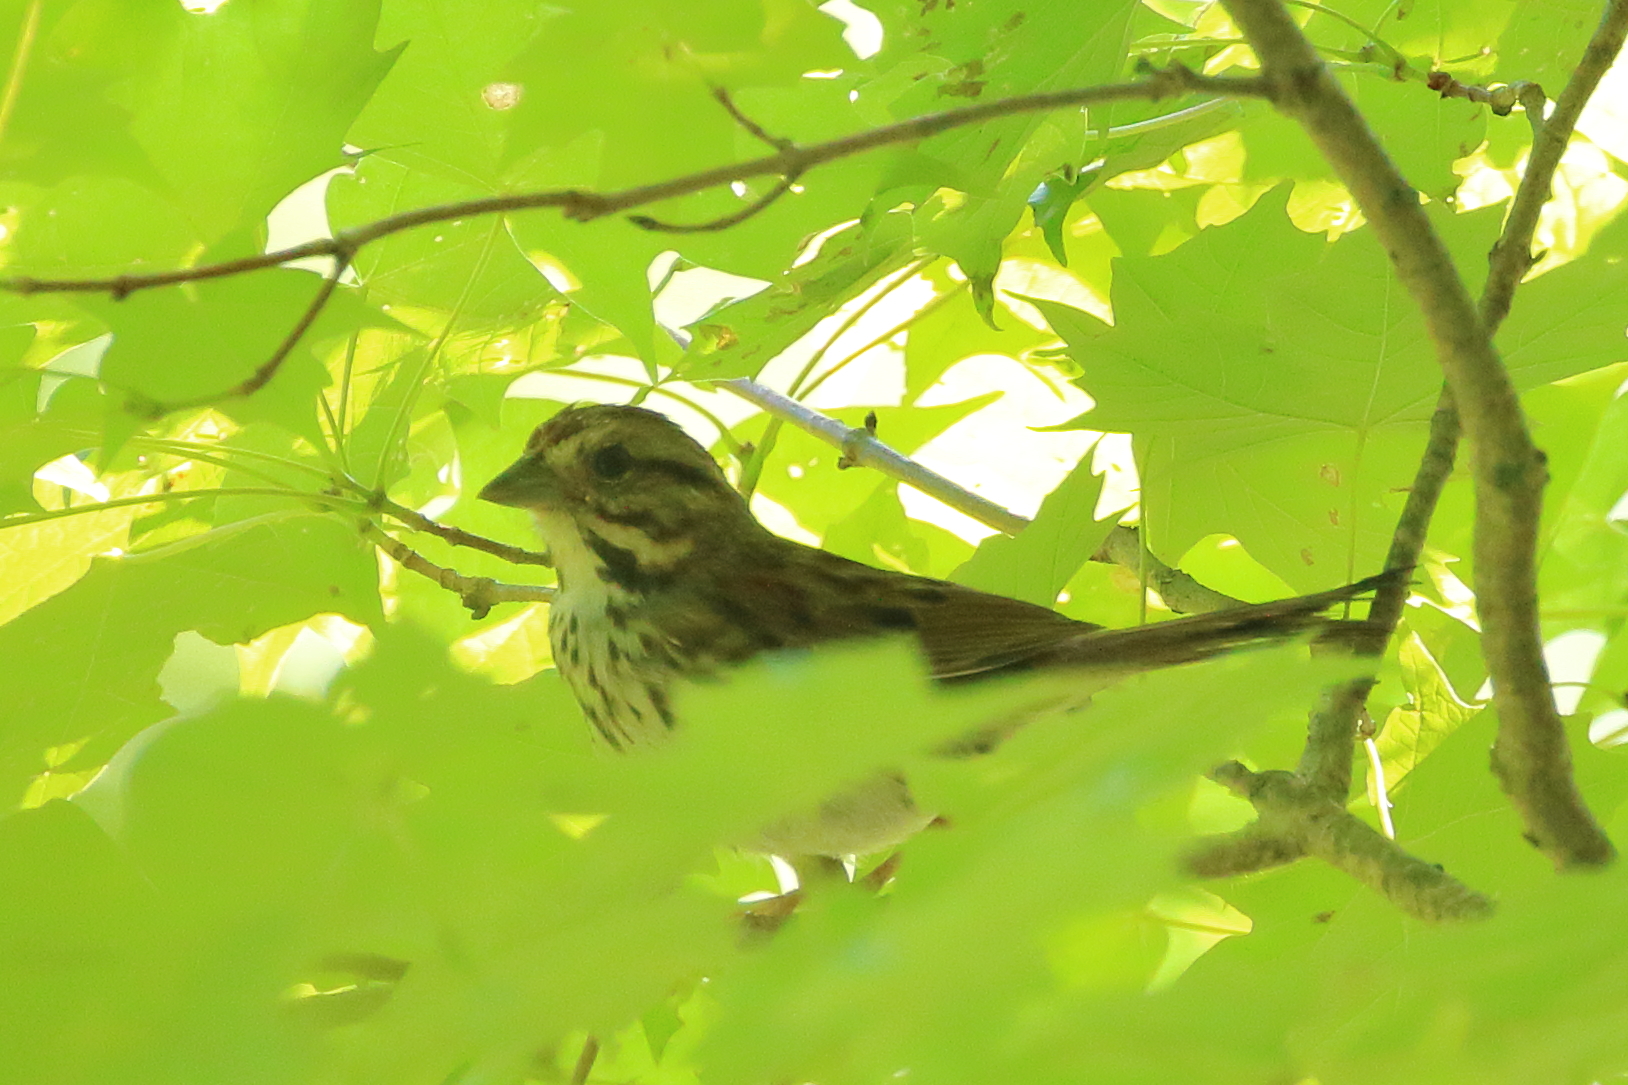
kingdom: Animalia
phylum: Chordata
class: Aves
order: Passeriformes
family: Passerellidae
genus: Melospiza
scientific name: Melospiza melodia
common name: Song sparrow
